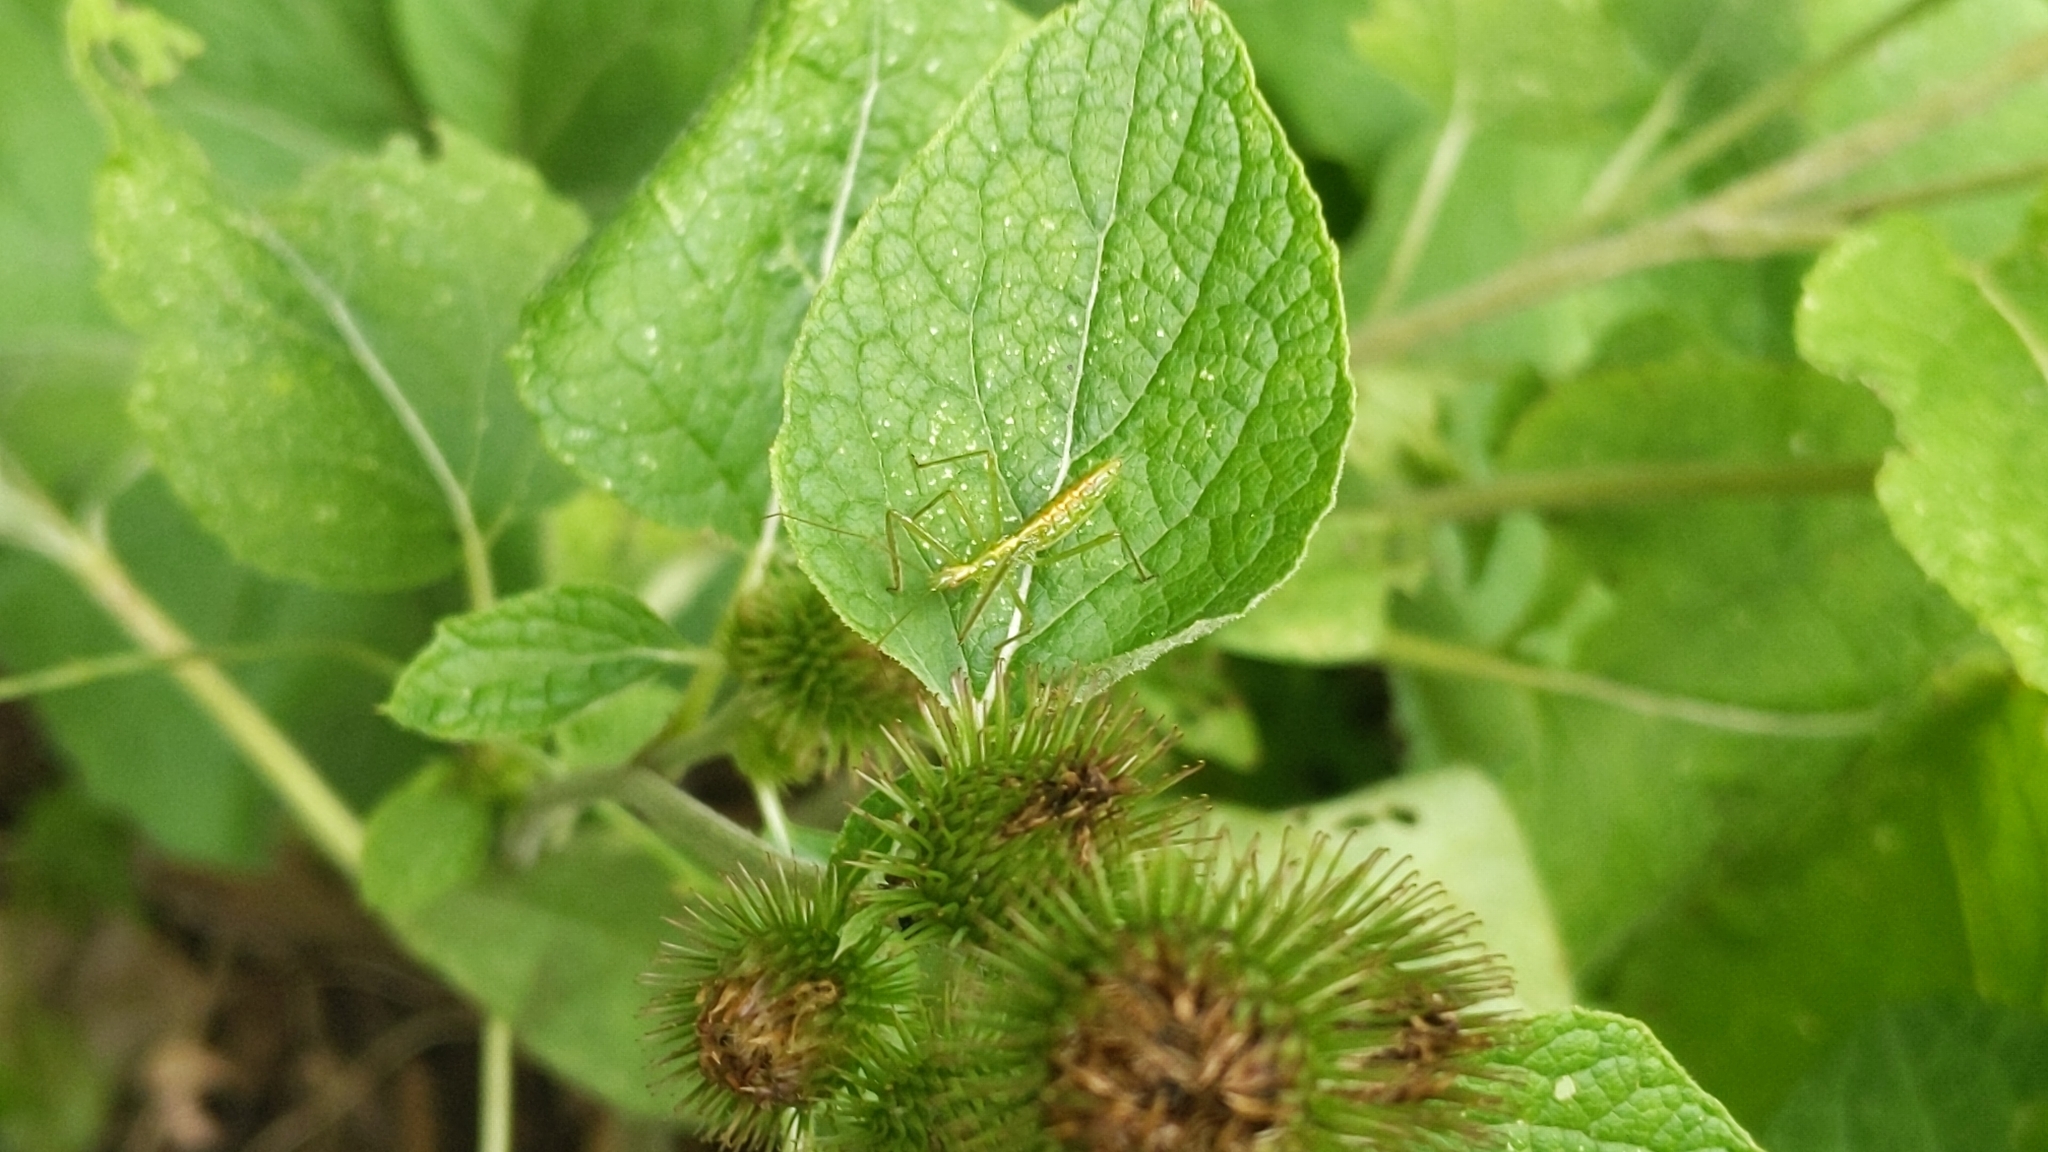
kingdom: Animalia
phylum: Arthropoda
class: Insecta
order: Hemiptera
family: Reduviidae
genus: Zelus
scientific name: Zelus luridus
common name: Pale green assassin bug
